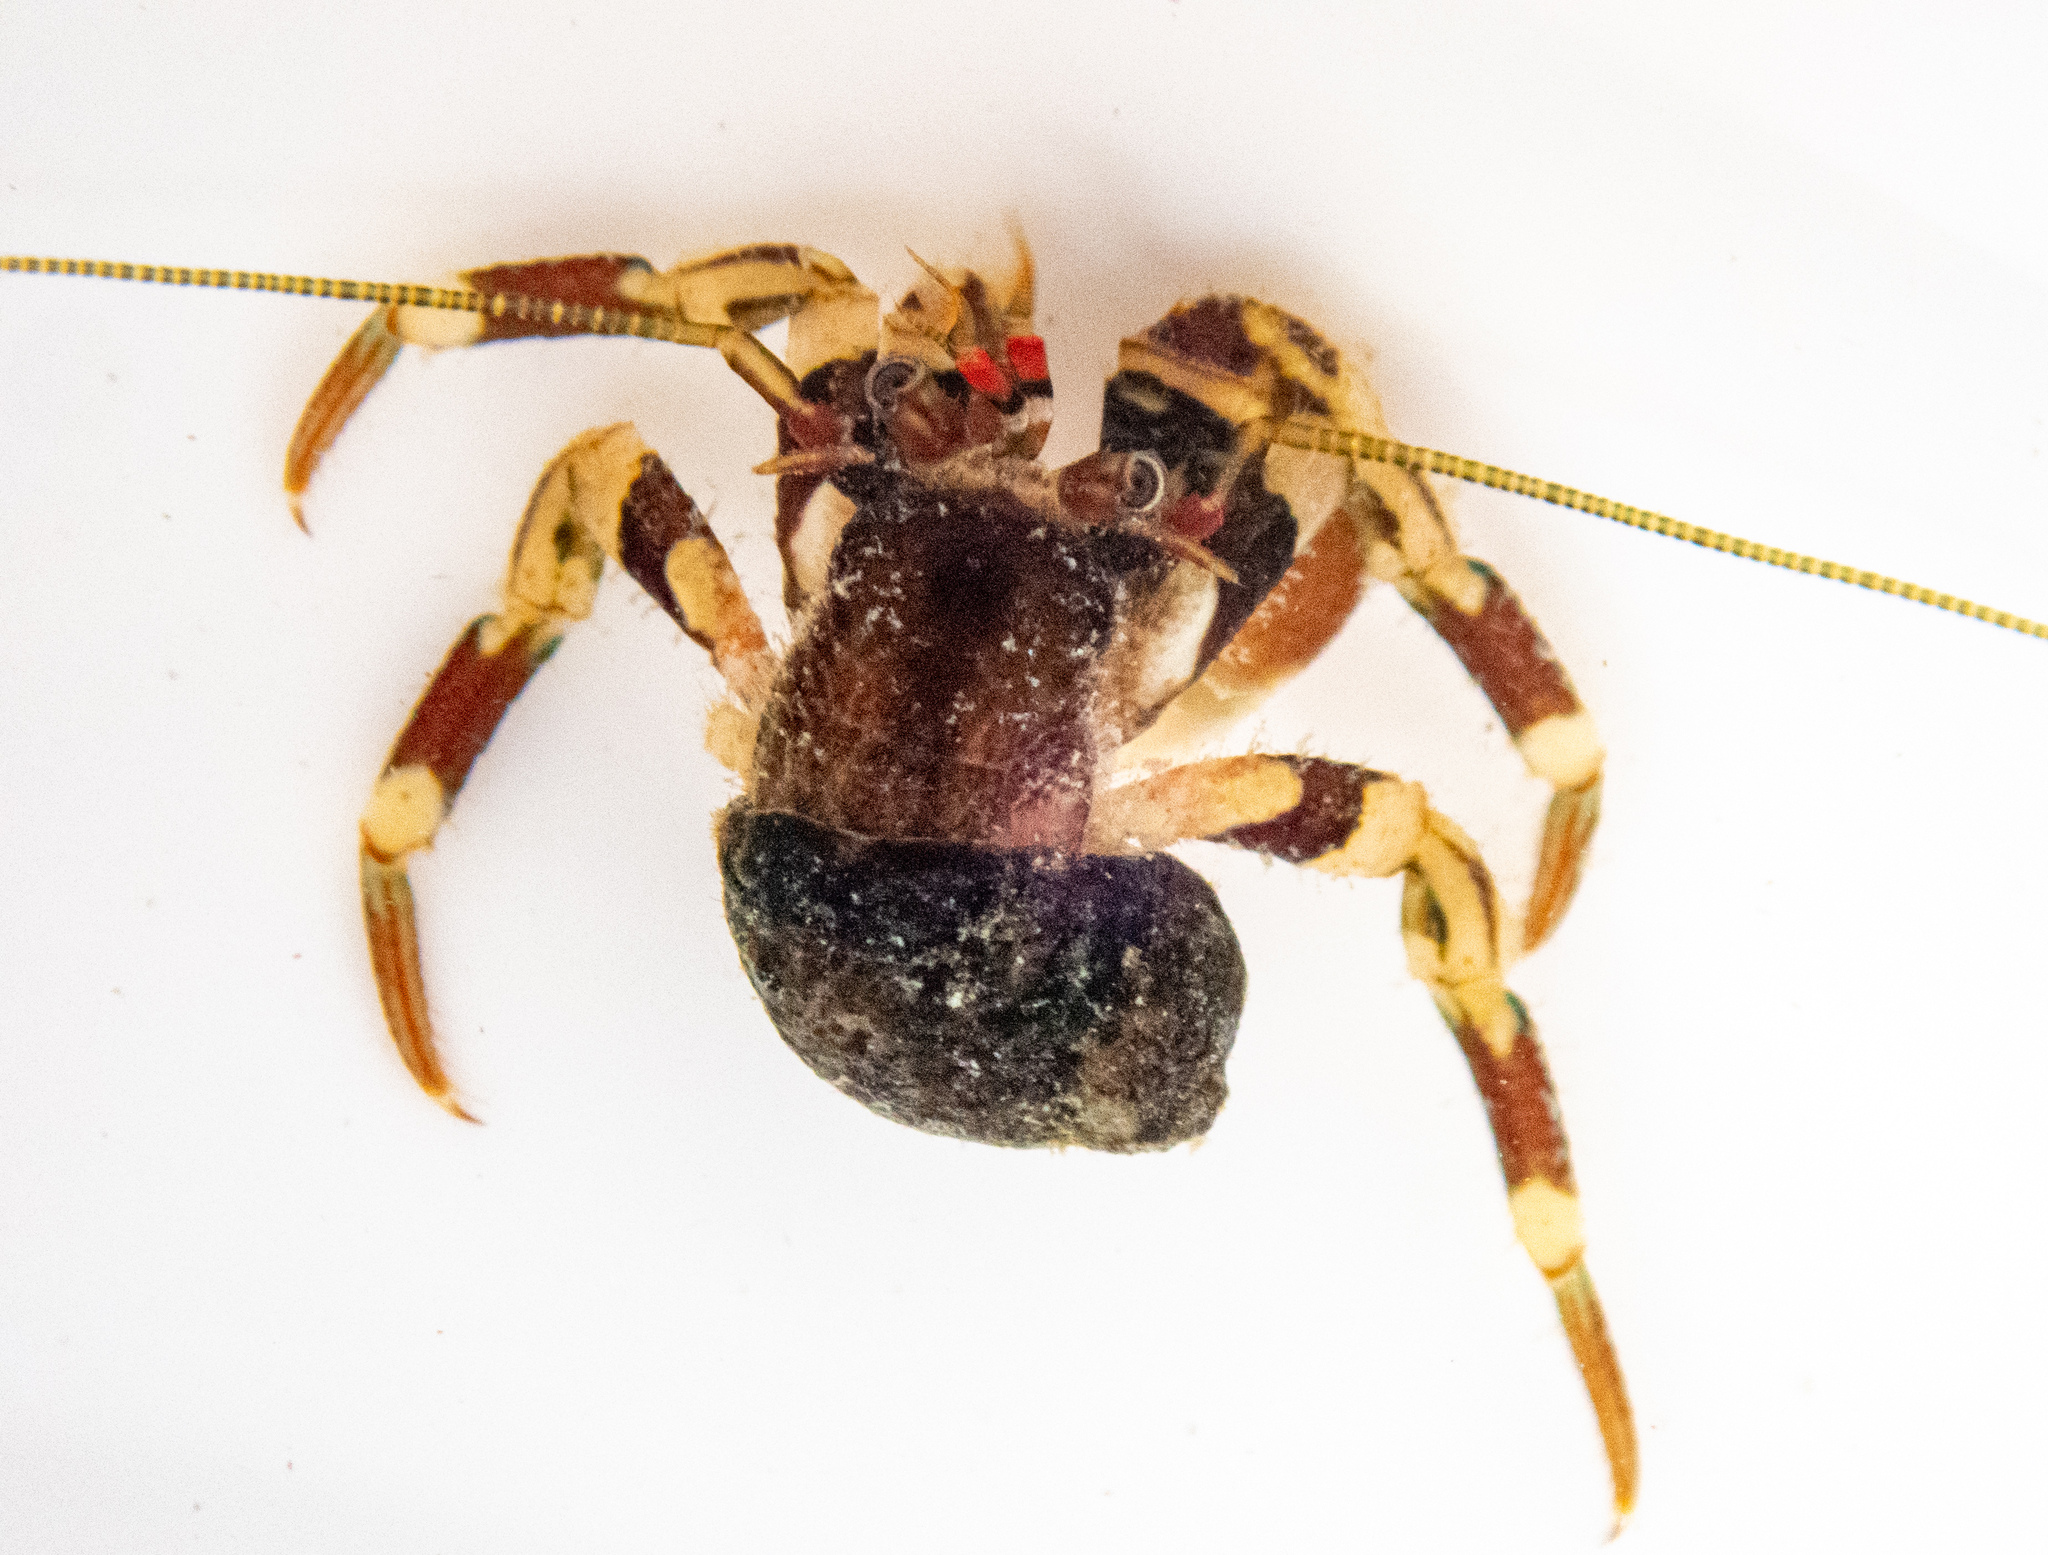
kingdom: Animalia
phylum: Arthropoda
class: Malacostraca
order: Decapoda
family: Paguridae
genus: Pagurus
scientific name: Pagurus hirsutiusculus
